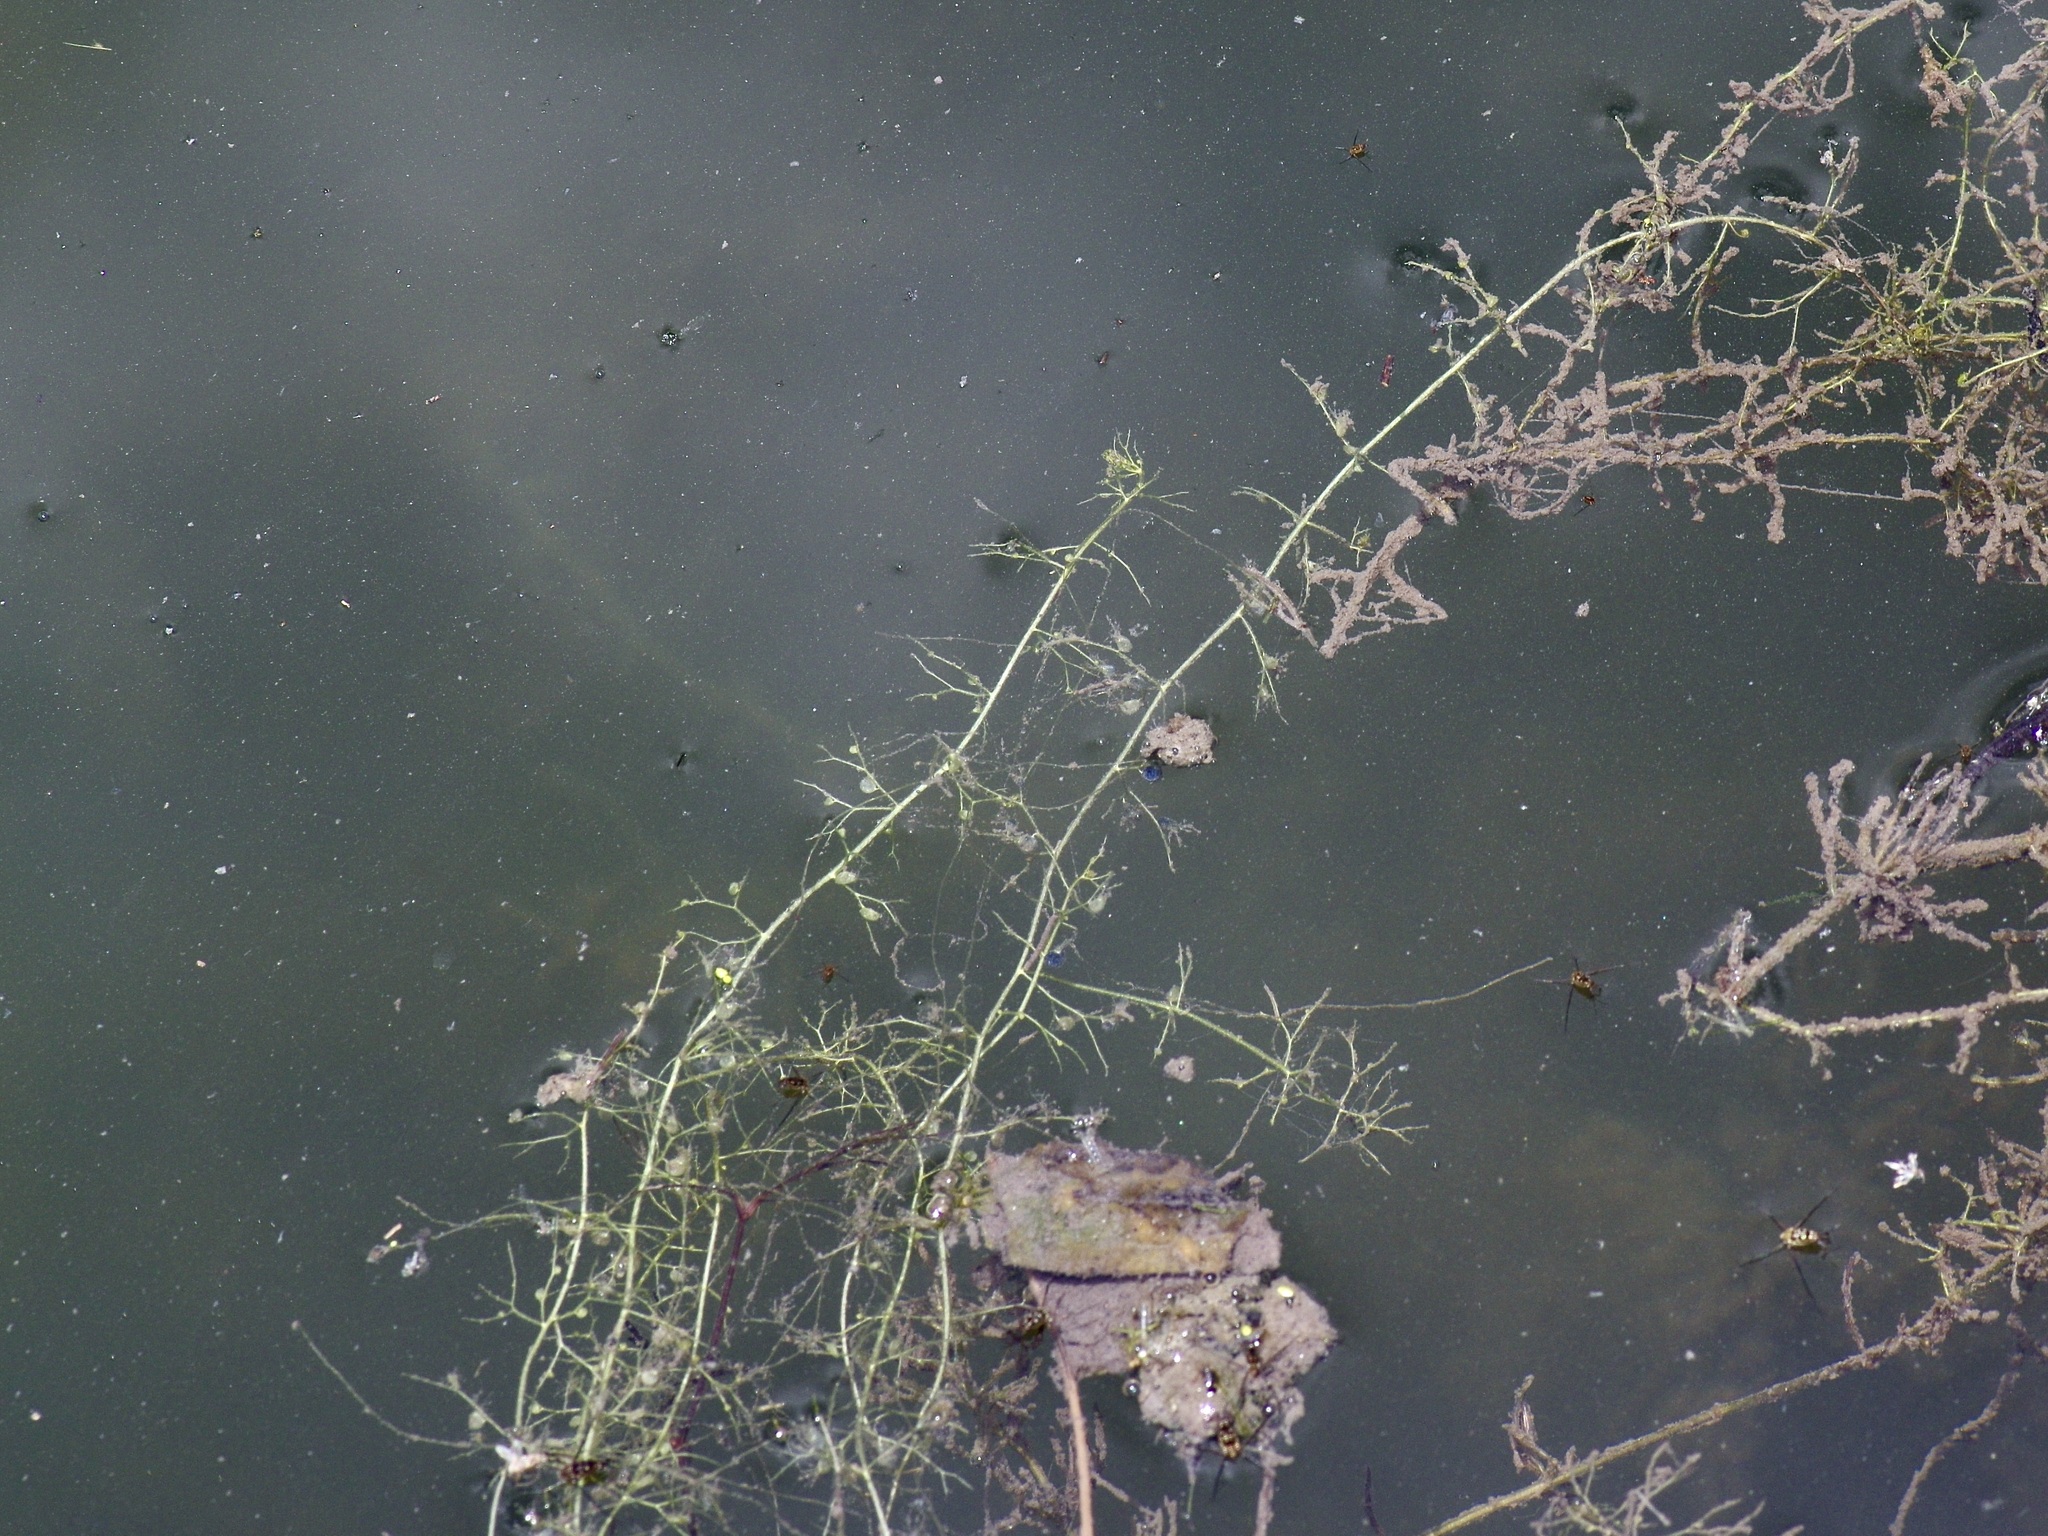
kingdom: Plantae
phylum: Tracheophyta
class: Magnoliopsida
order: Lamiales
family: Lentibulariaceae
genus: Utricularia
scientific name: Utricularia gibba
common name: Humped bladderwort
